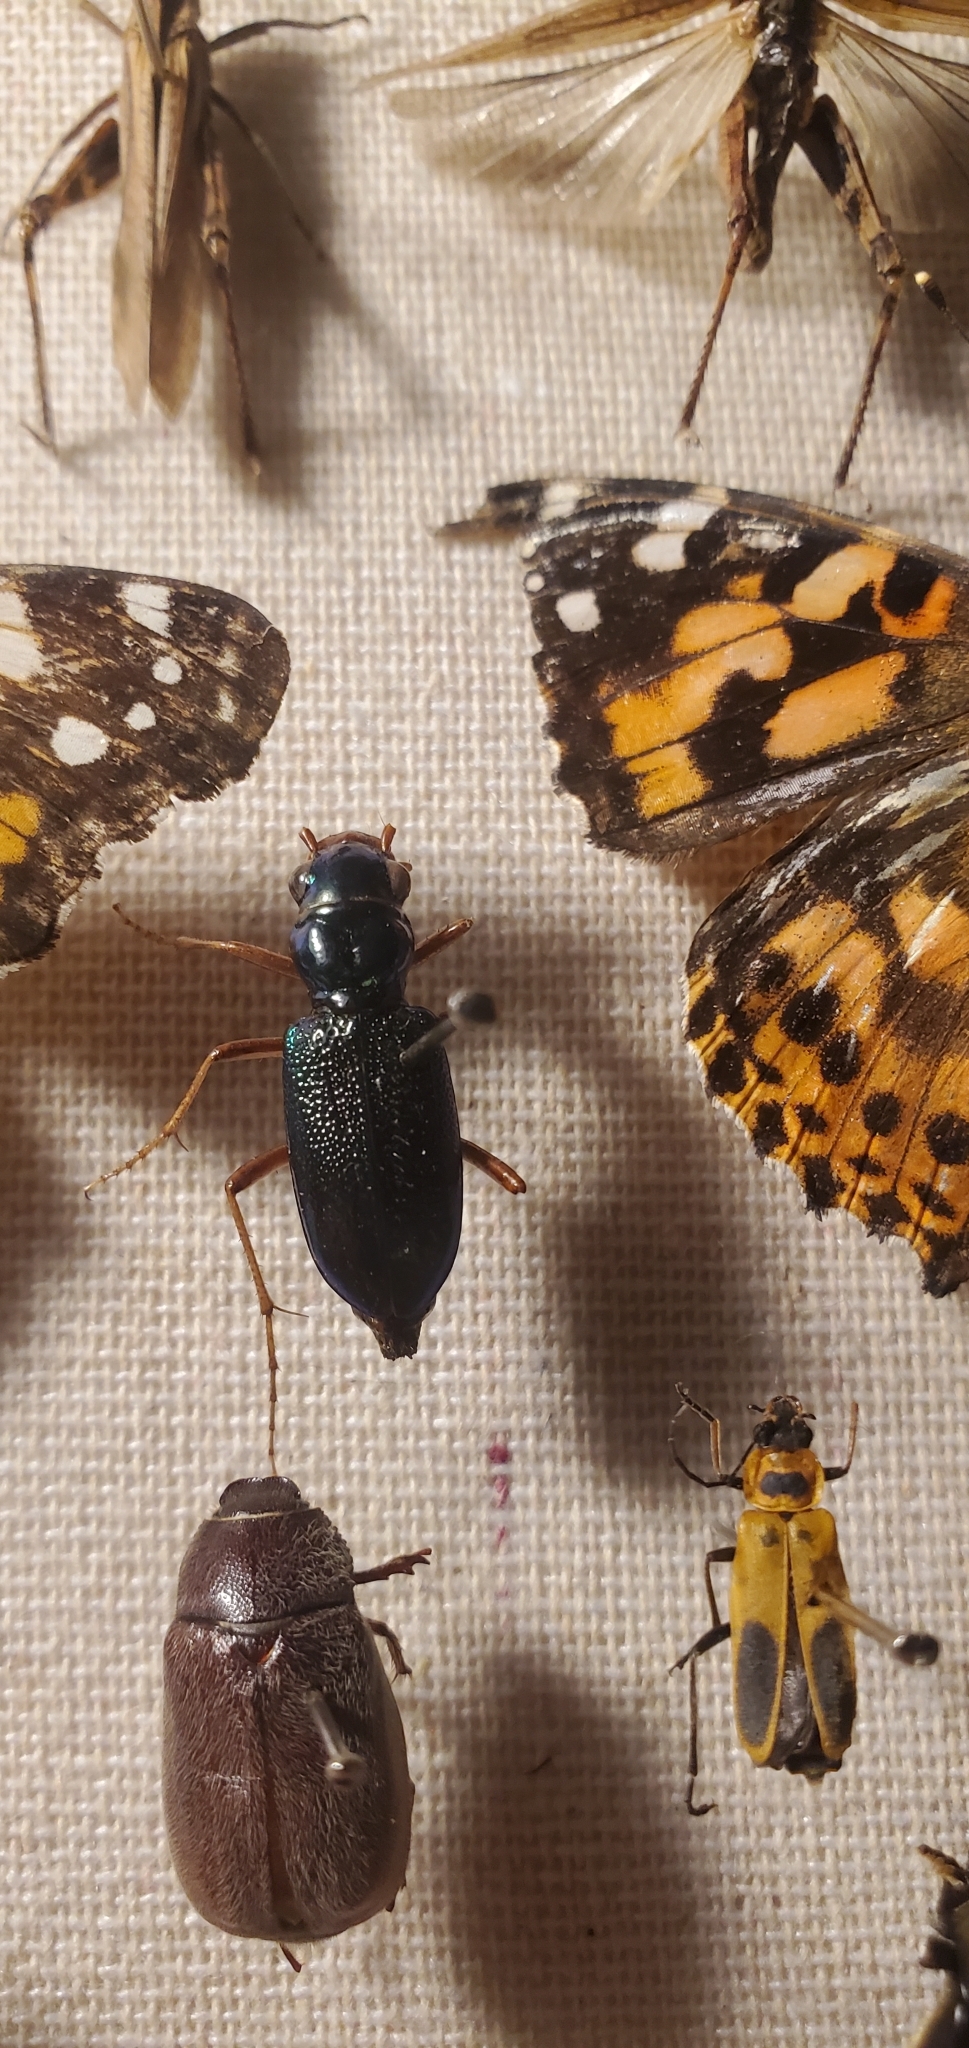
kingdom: Animalia
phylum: Arthropoda
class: Insecta
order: Coleoptera
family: Carabidae
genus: Tetracha
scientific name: Tetracha virginica
